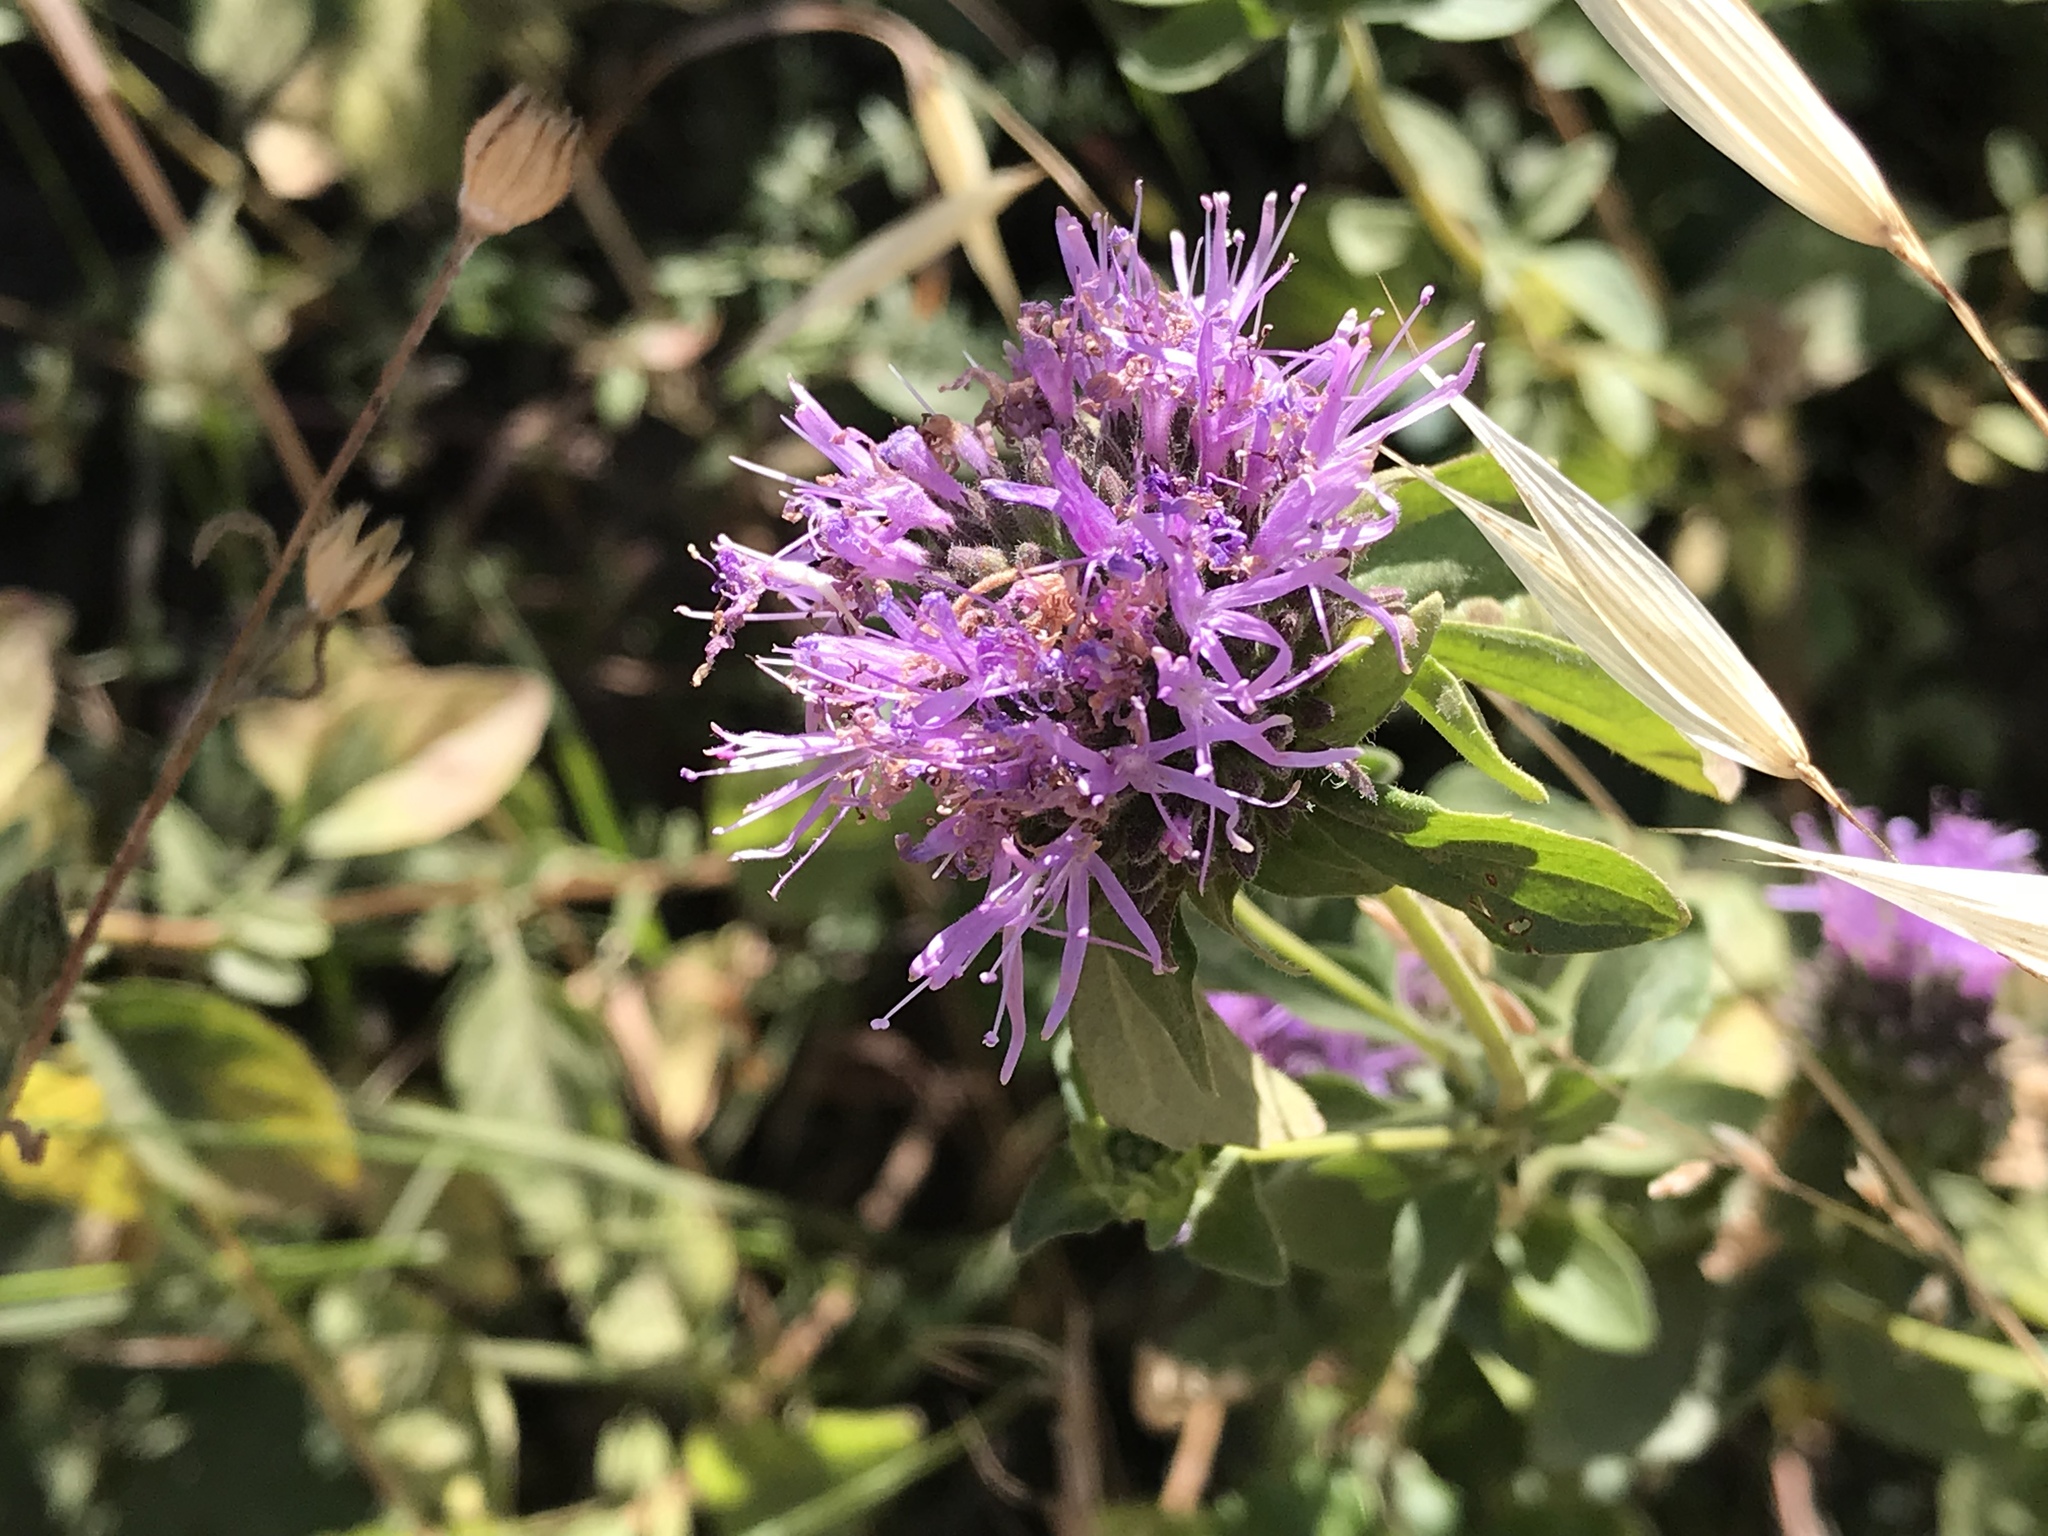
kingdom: Plantae
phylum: Tracheophyta
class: Magnoliopsida
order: Lamiales
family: Lamiaceae
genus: Monardella
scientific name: Monardella odoratissima
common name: Pacific monardella
